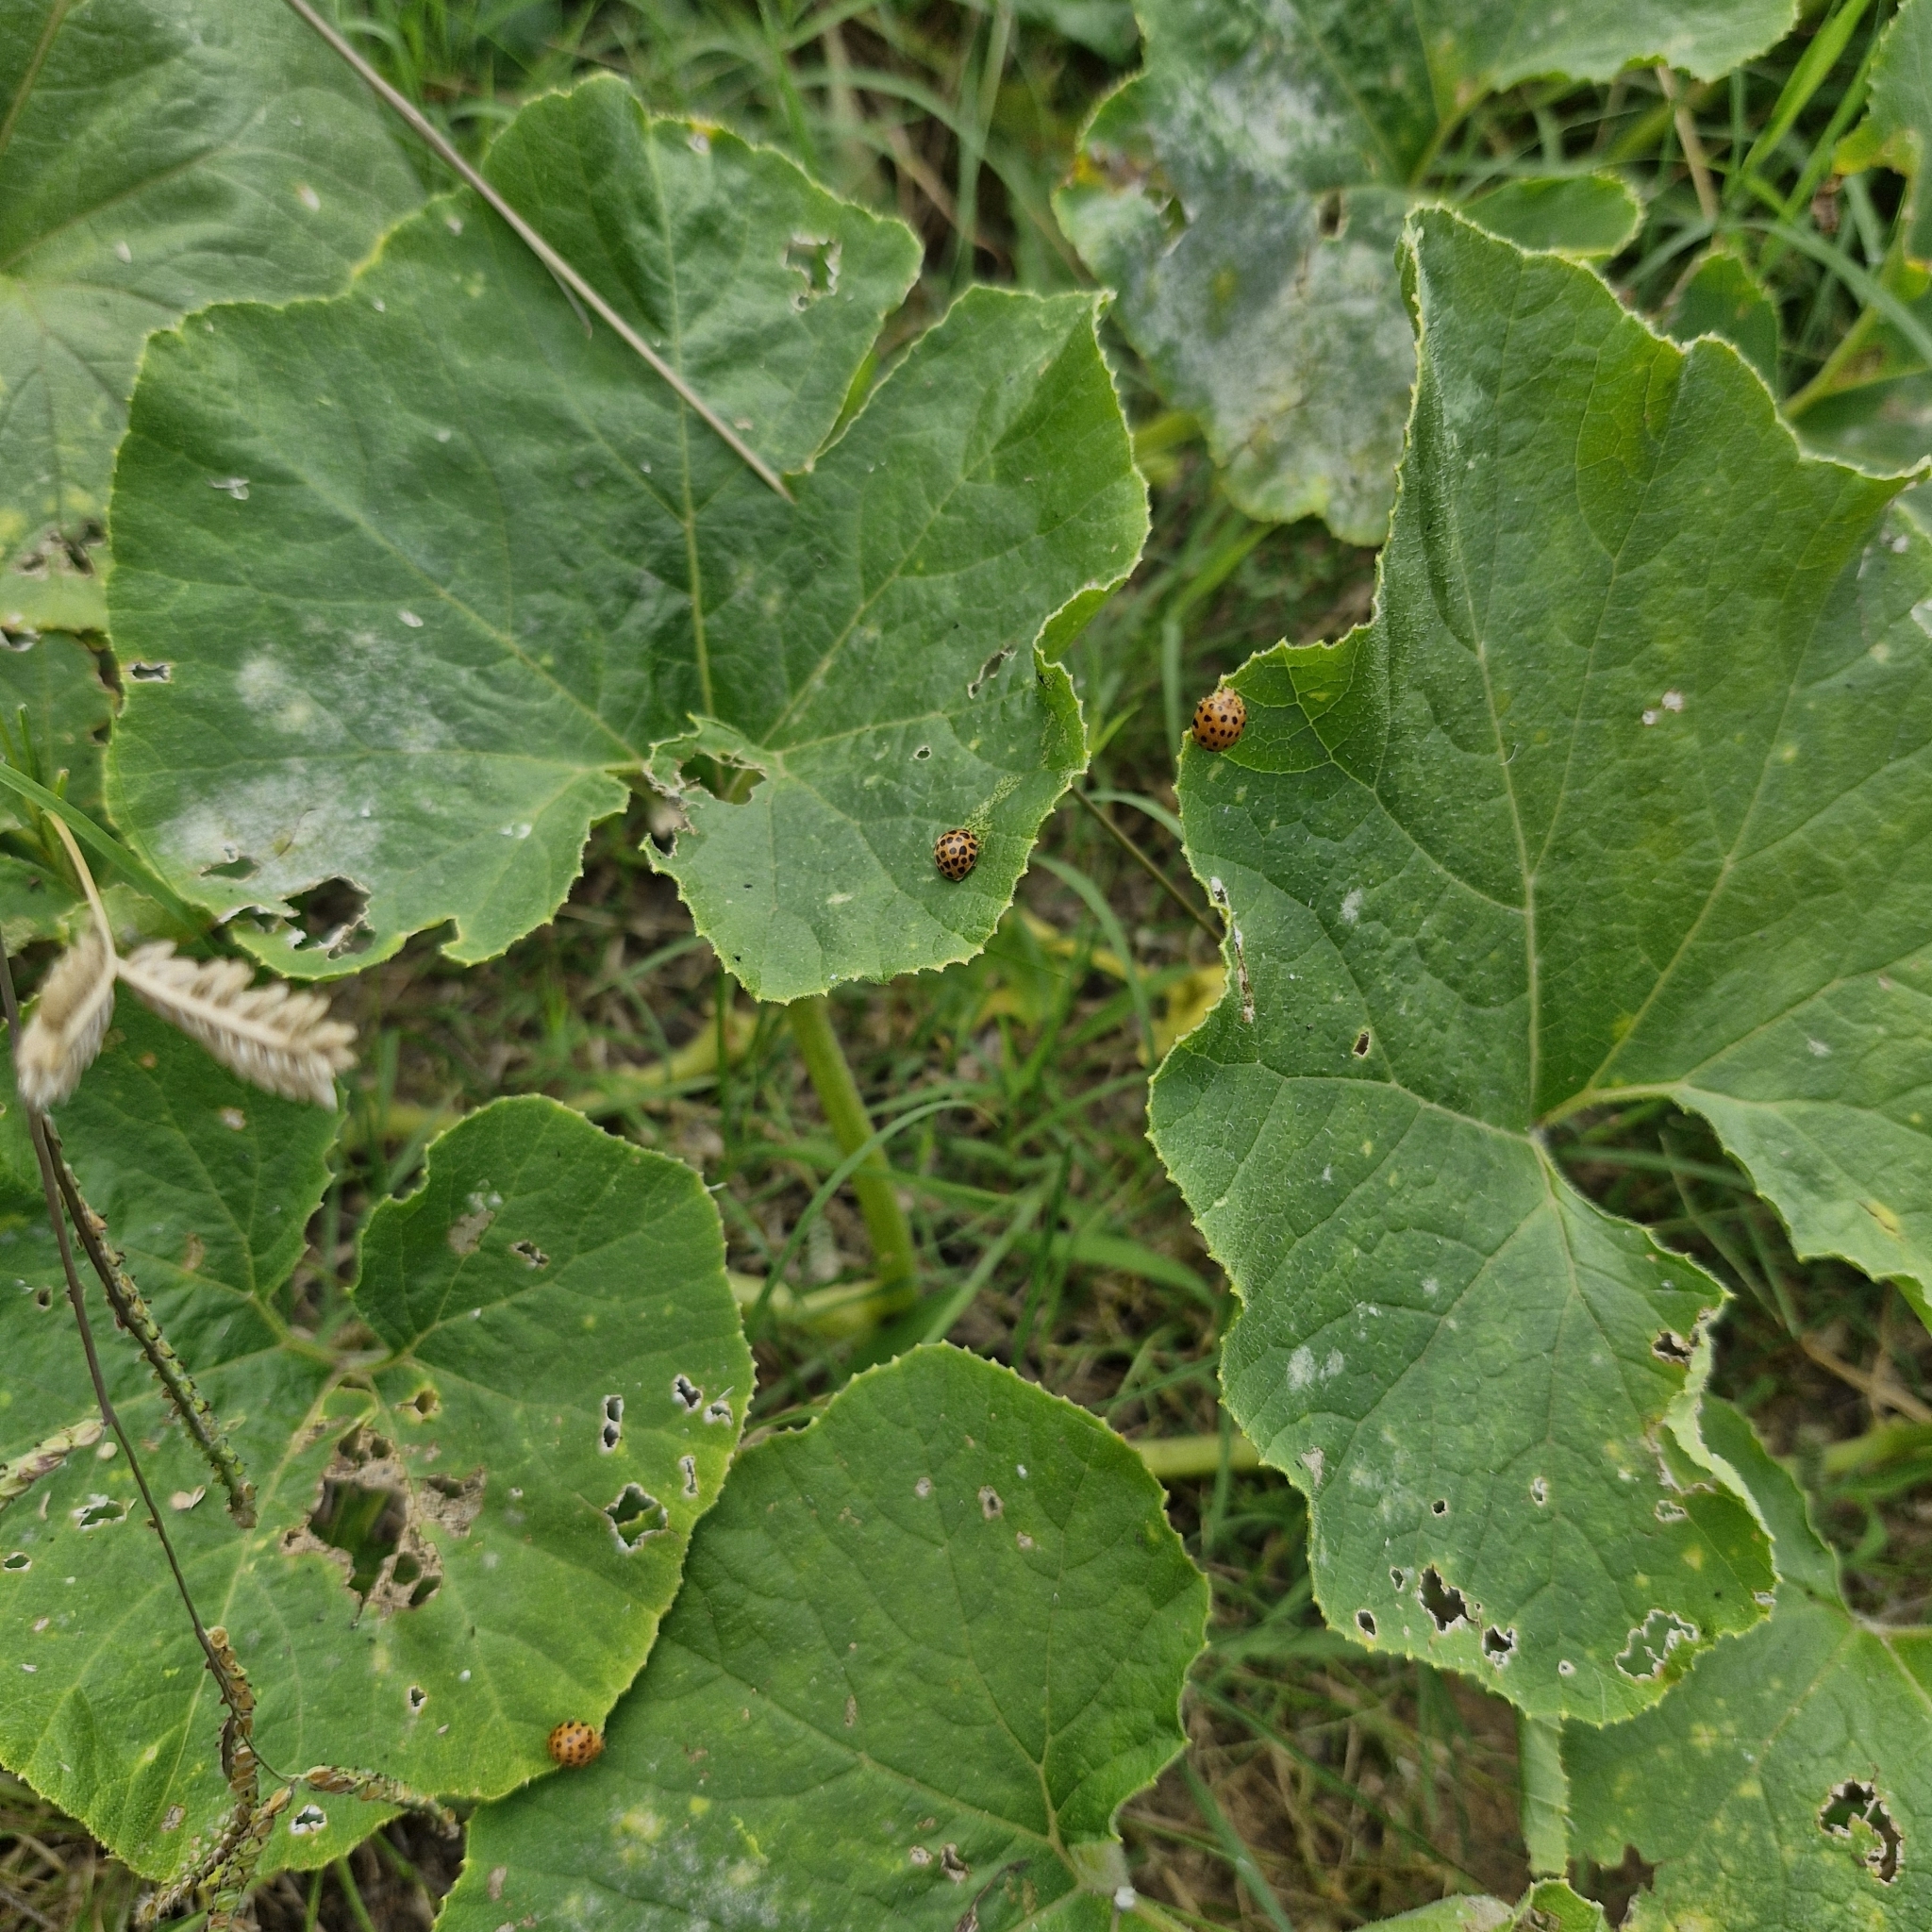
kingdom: Animalia
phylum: Arthropoda
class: Insecta
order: Coleoptera
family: Coccinellidae
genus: Henosepilachna
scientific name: Henosepilachna sumbana
